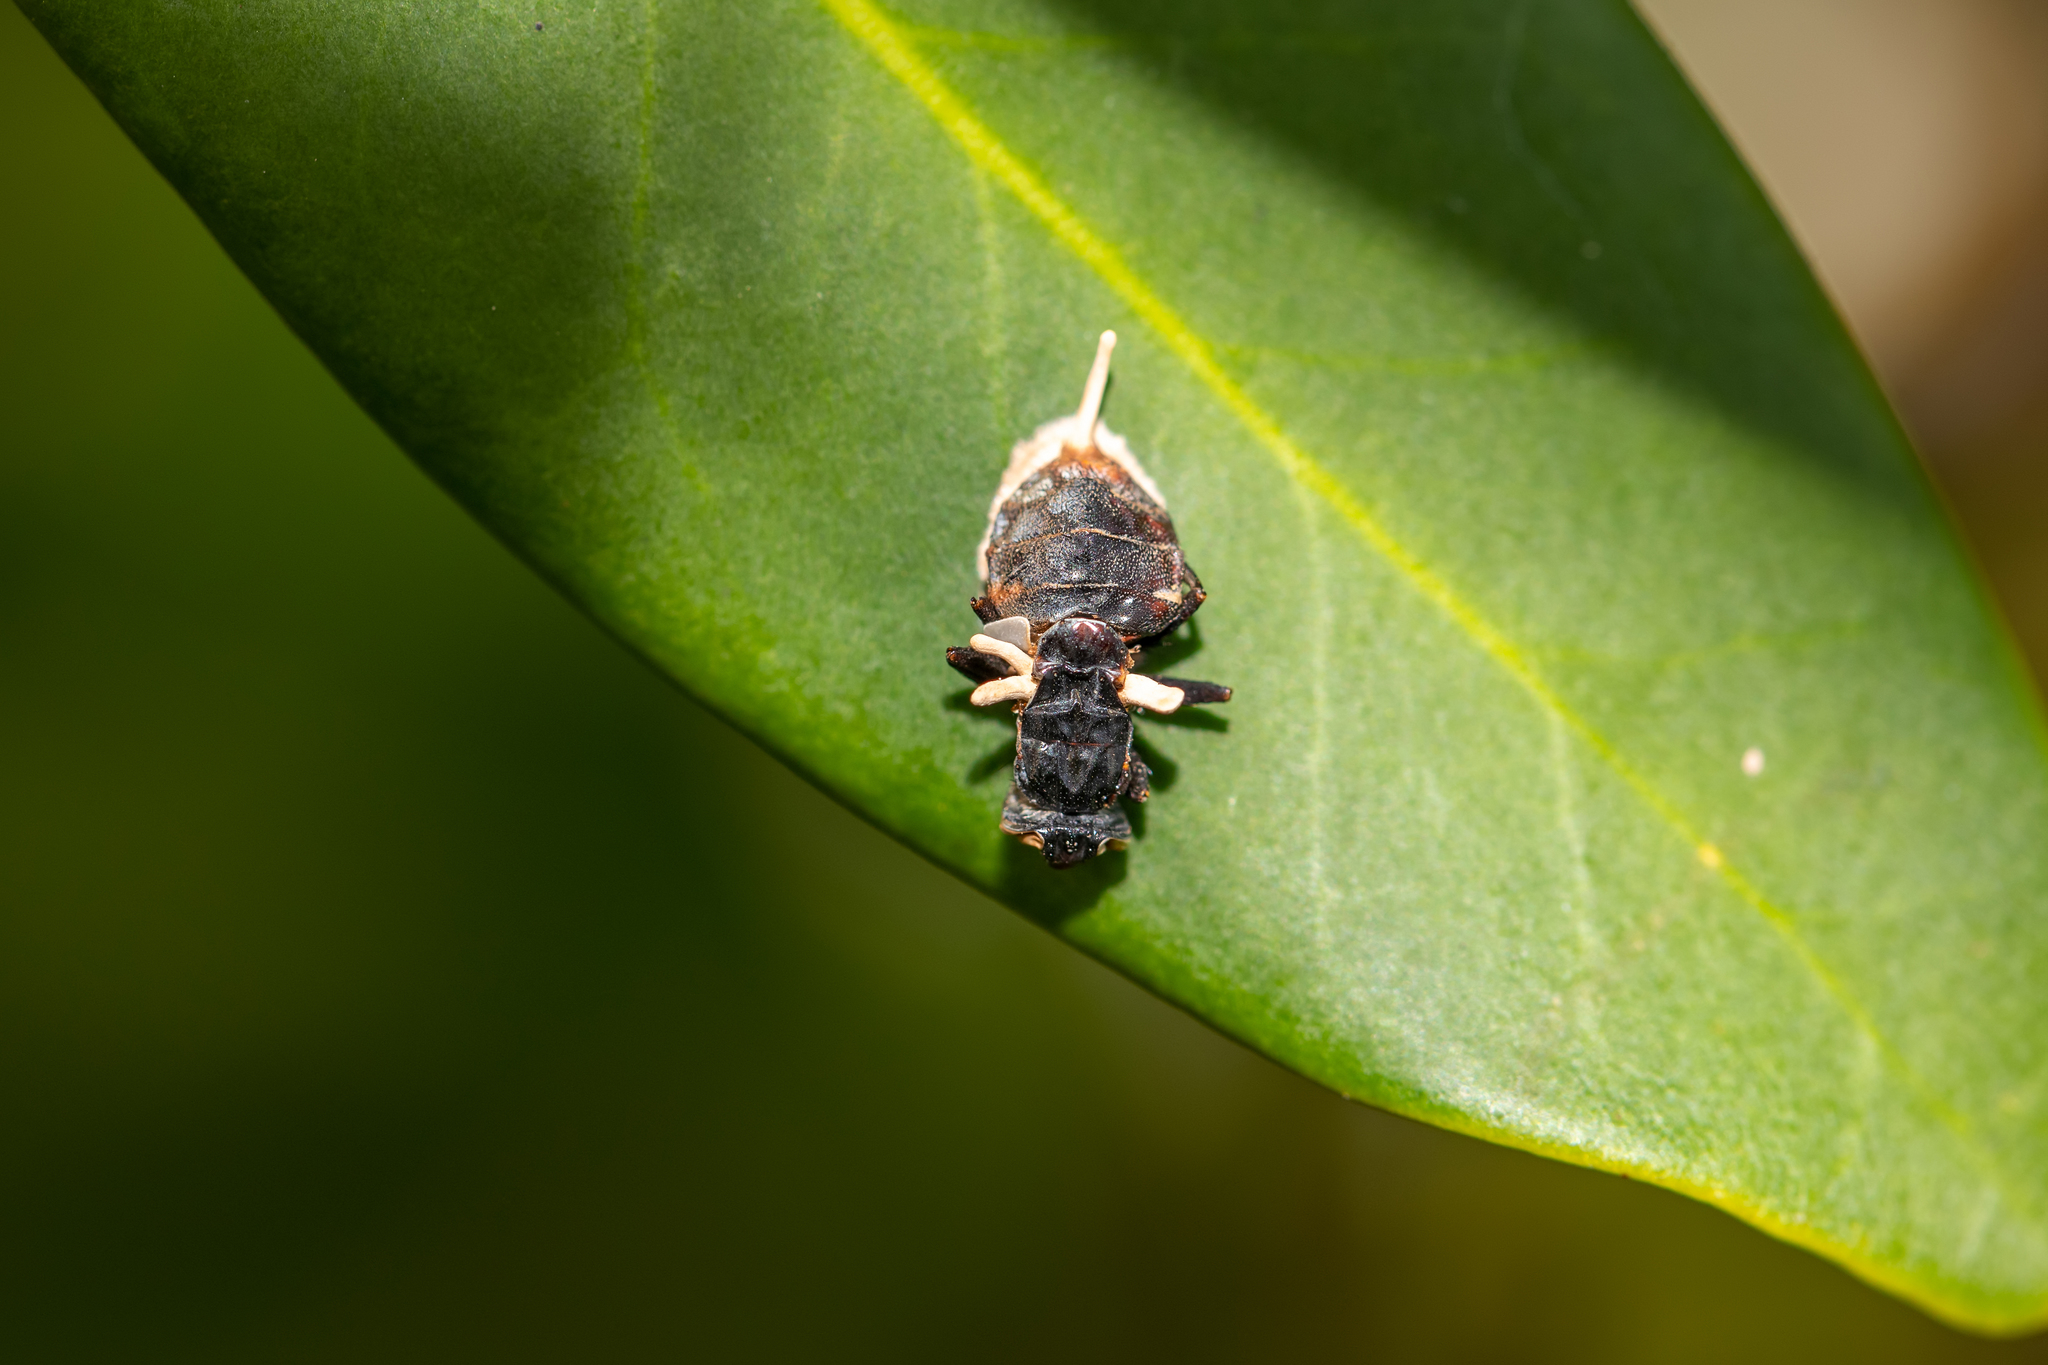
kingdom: Fungi
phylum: Ascomycota
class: Sordariomycetes
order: Hypocreales
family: Ophiocordycipitaceae
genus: Ophiocordyceps
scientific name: Ophiocordyceps dipterigena
